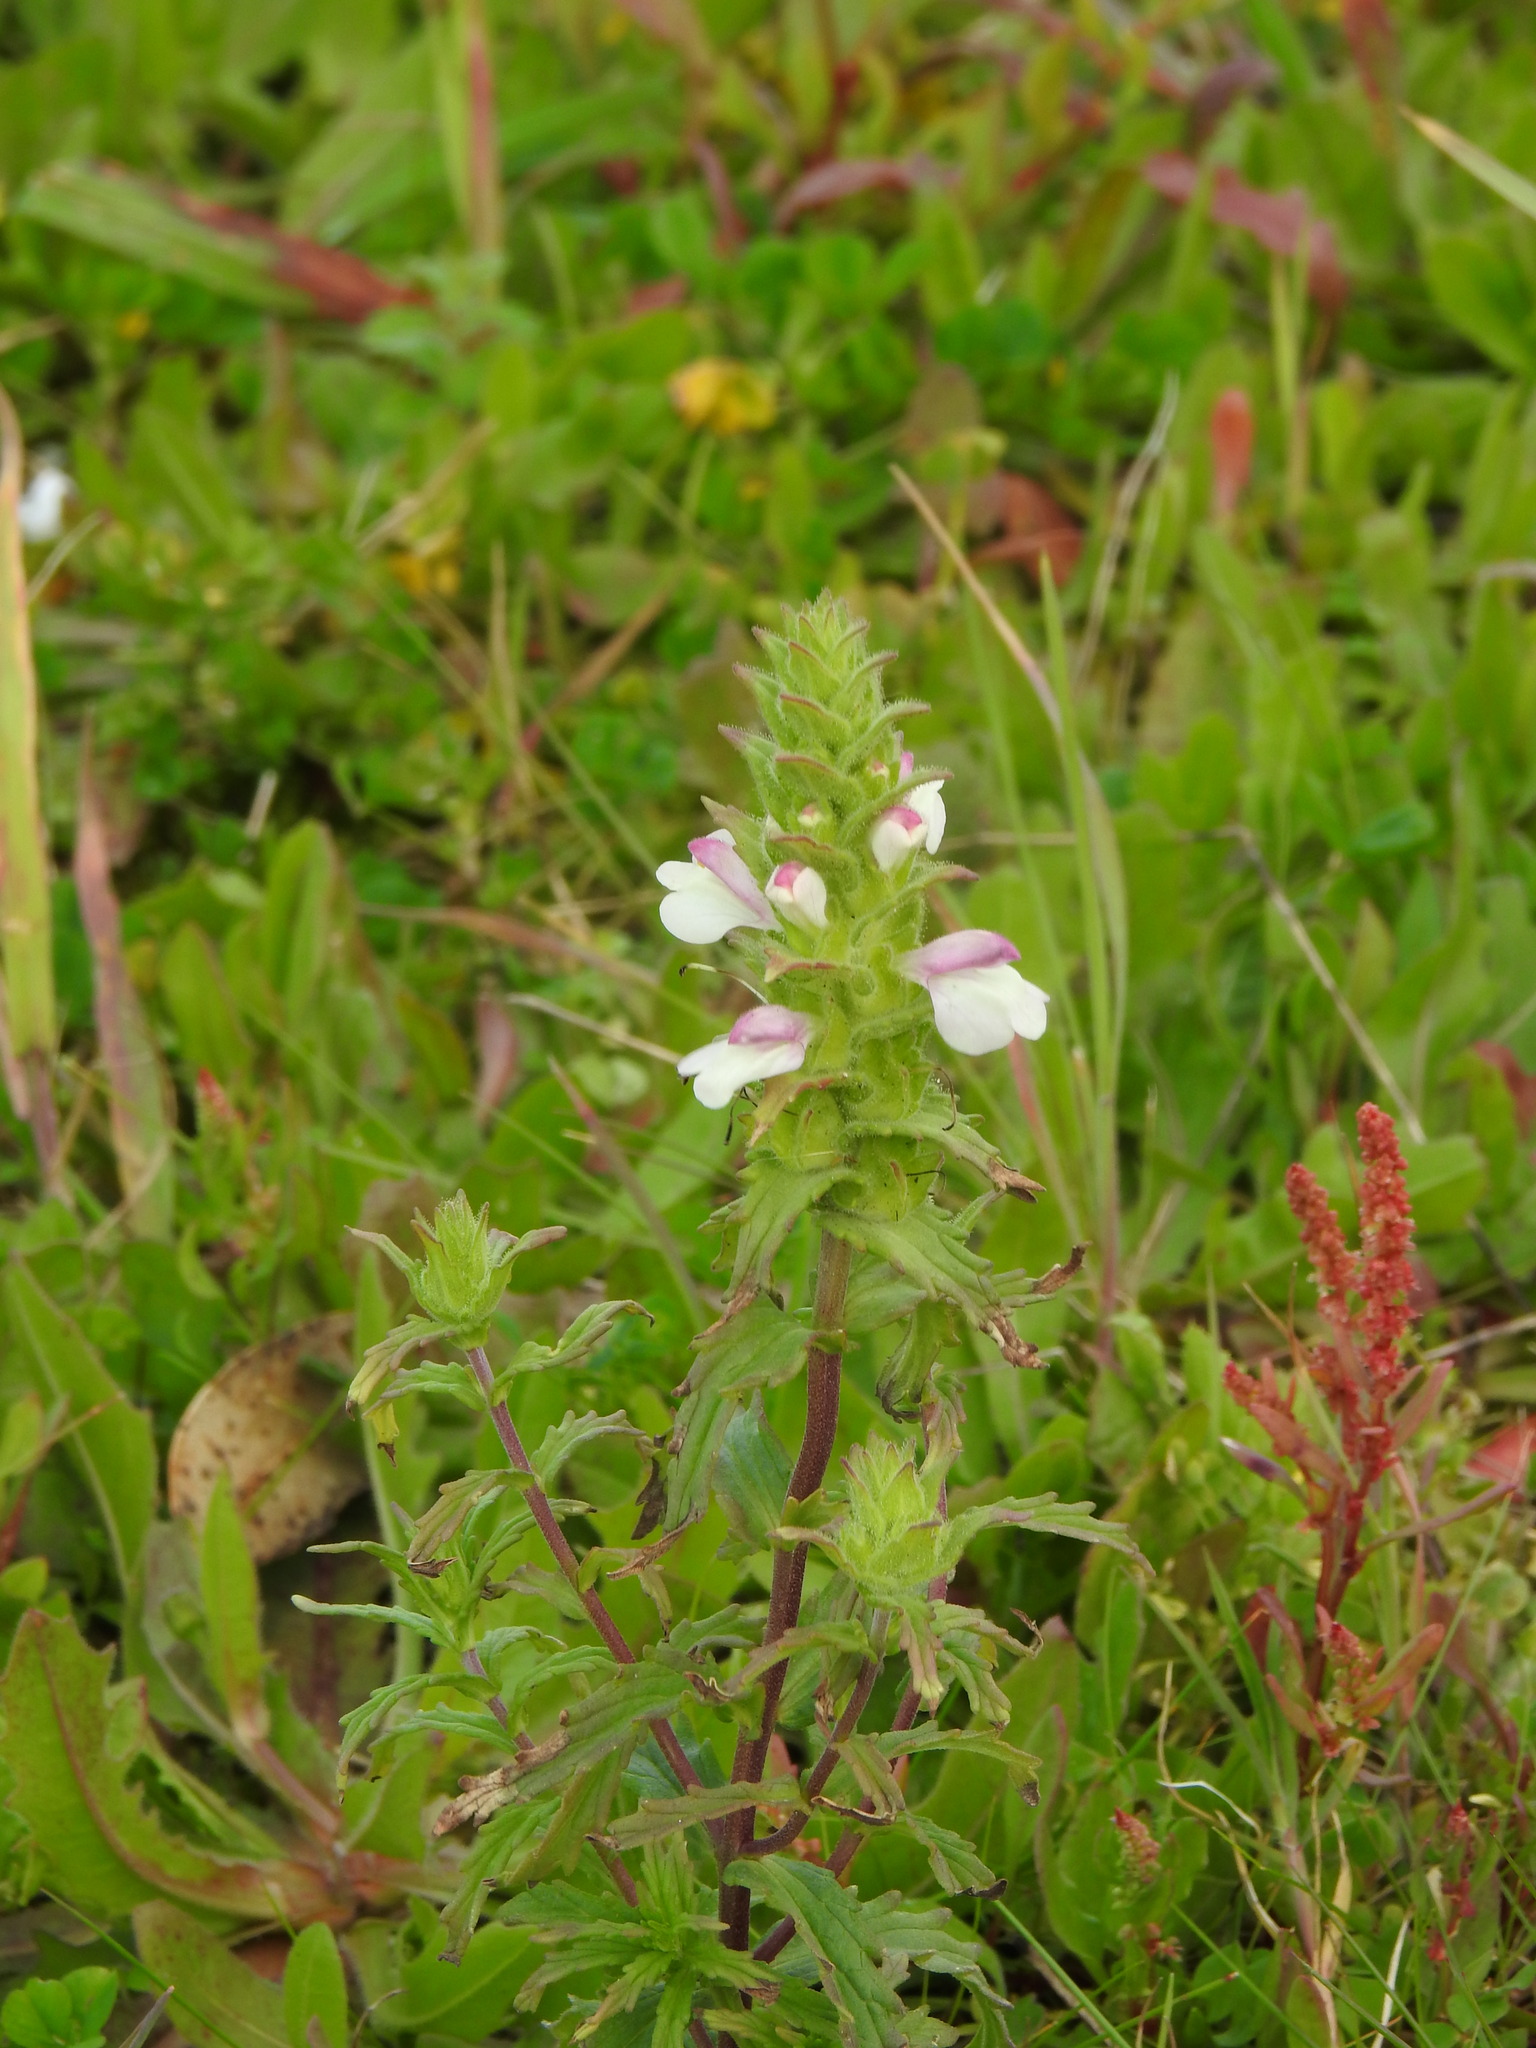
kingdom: Plantae
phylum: Tracheophyta
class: Magnoliopsida
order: Lamiales
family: Orobanchaceae
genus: Bellardia
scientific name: Bellardia trixago
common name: Mediterranean lineseed
